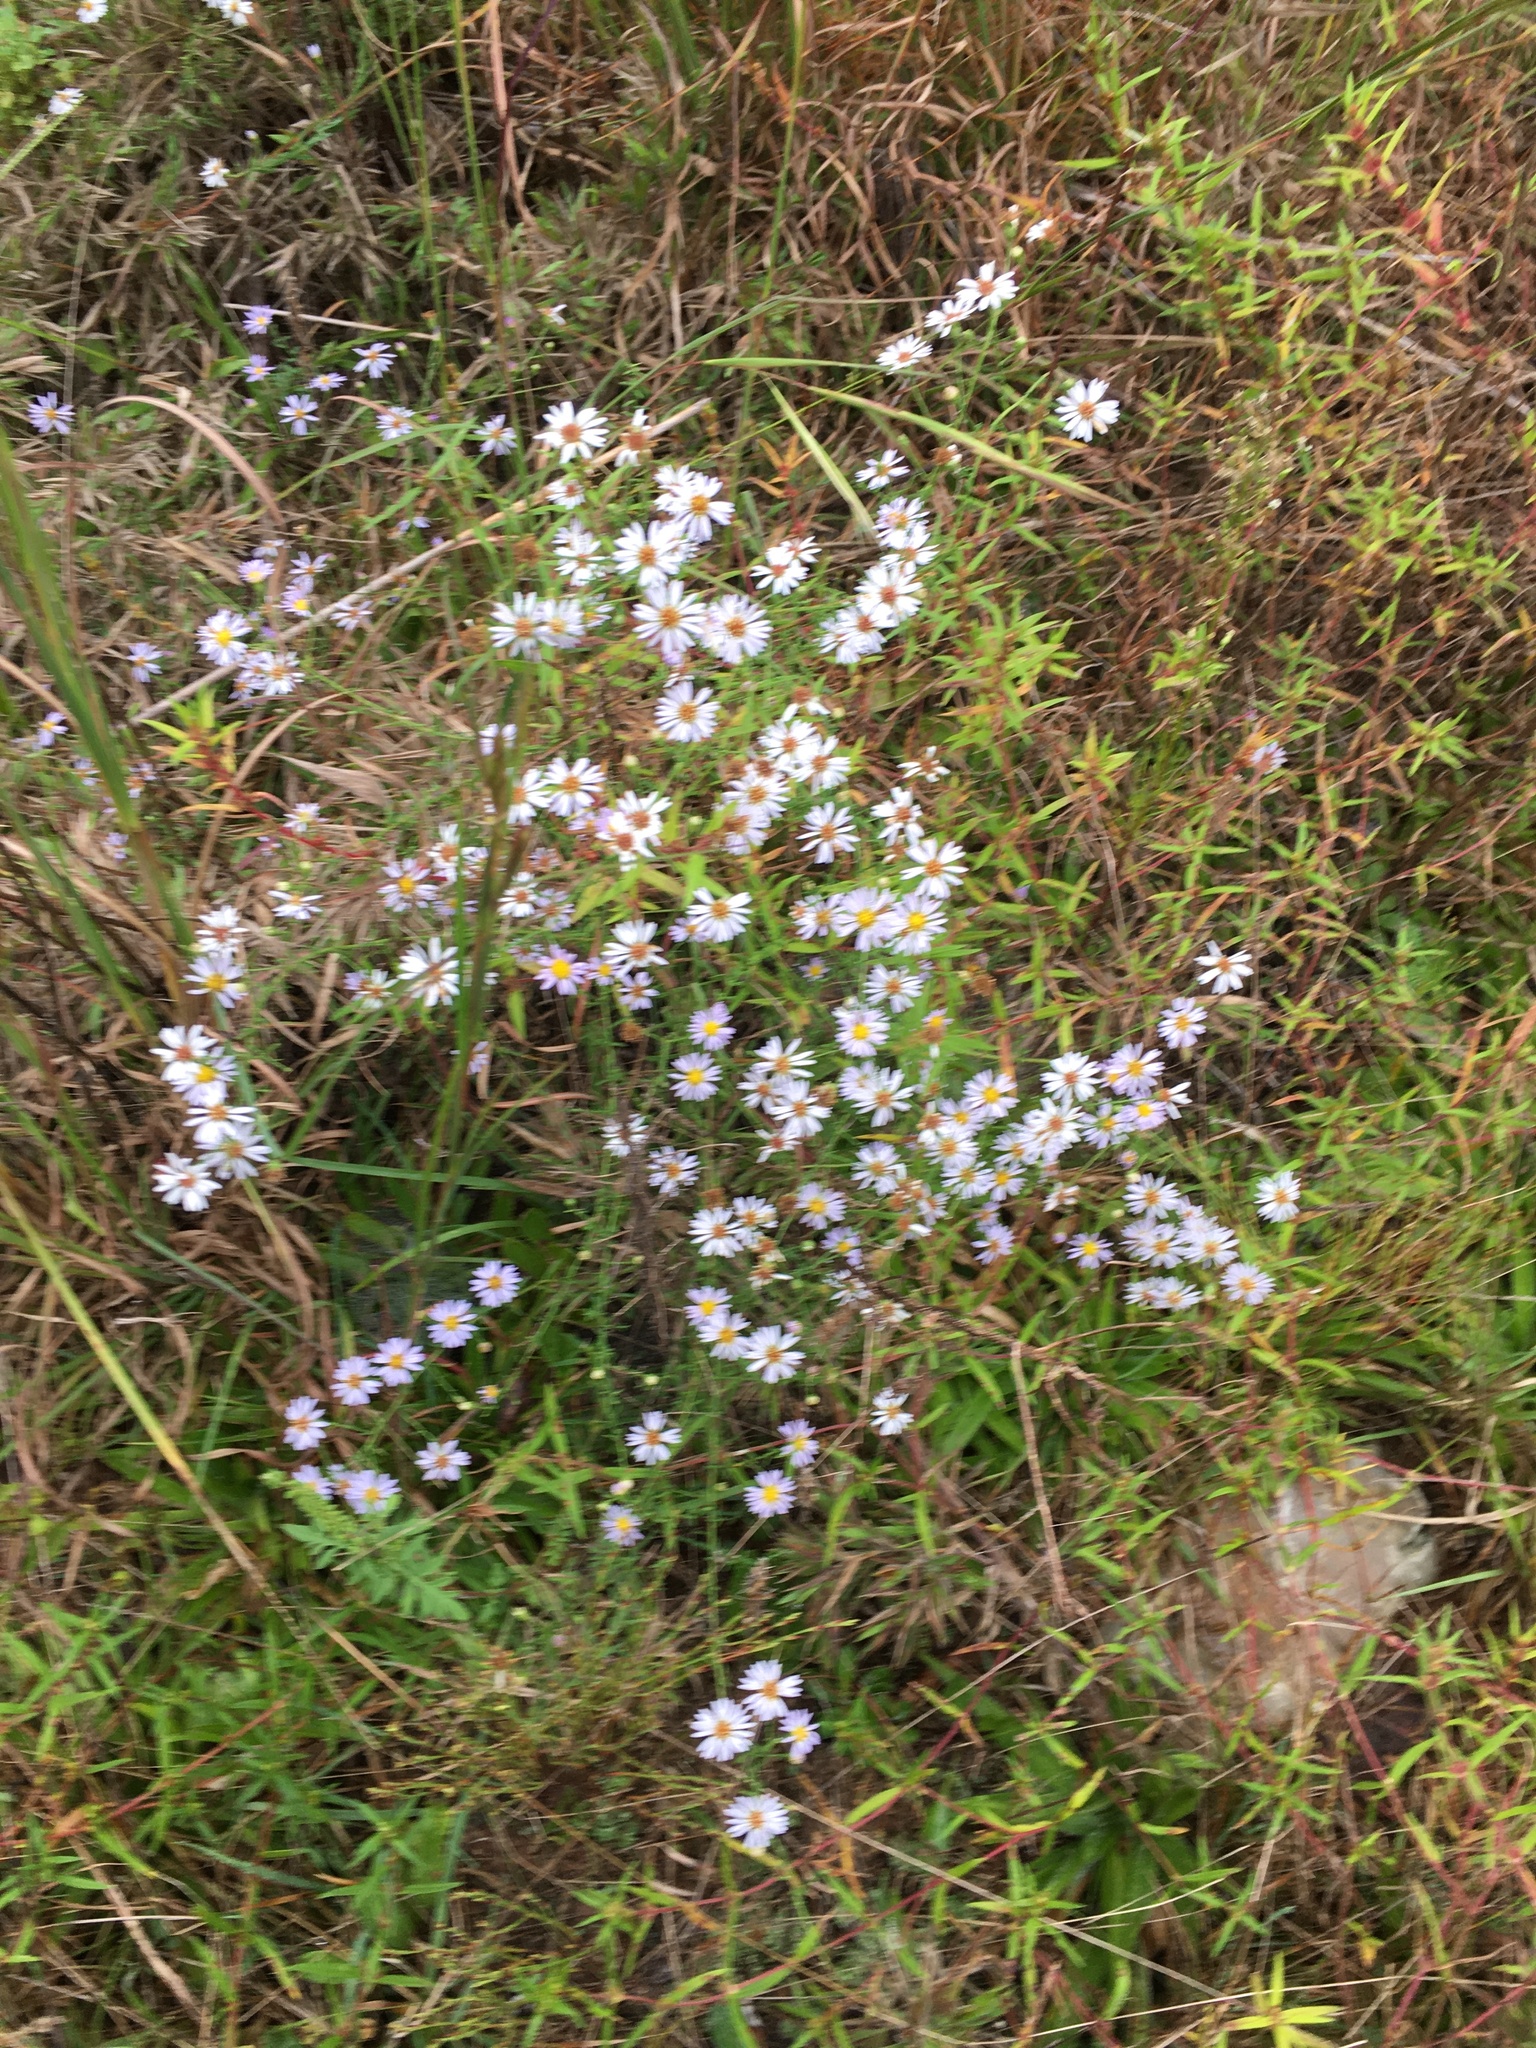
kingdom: Plantae
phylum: Tracheophyta
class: Magnoliopsida
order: Asterales
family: Asteraceae
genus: Symphyotrichum
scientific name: Symphyotrichum dumosum
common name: Bushy aster
